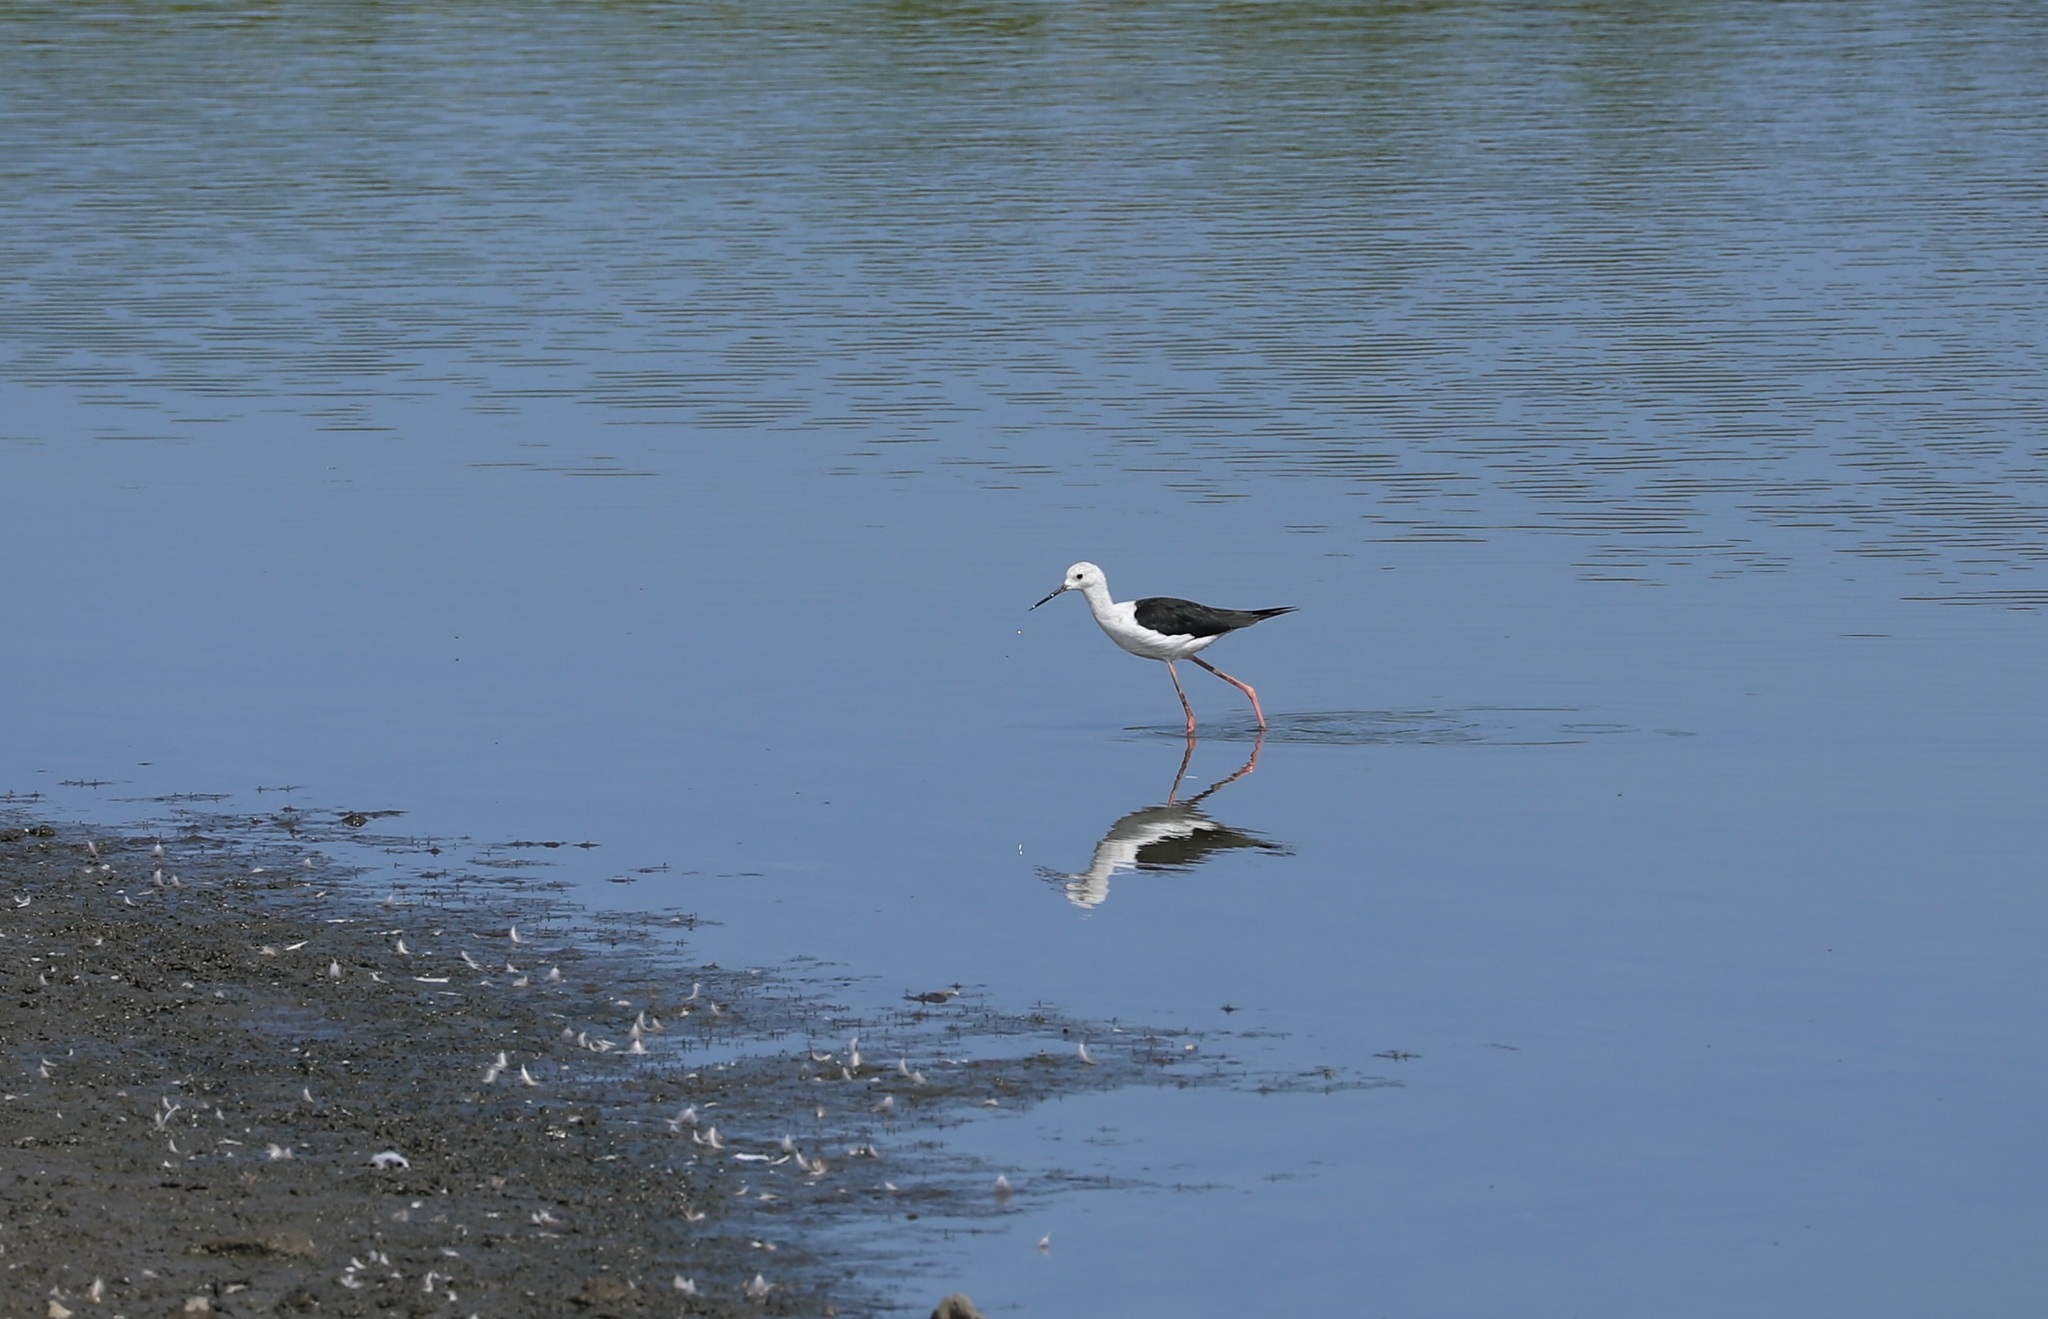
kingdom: Animalia
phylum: Chordata
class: Aves
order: Charadriiformes
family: Recurvirostridae
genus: Himantopus
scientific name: Himantopus himantopus
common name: Black-winged stilt
